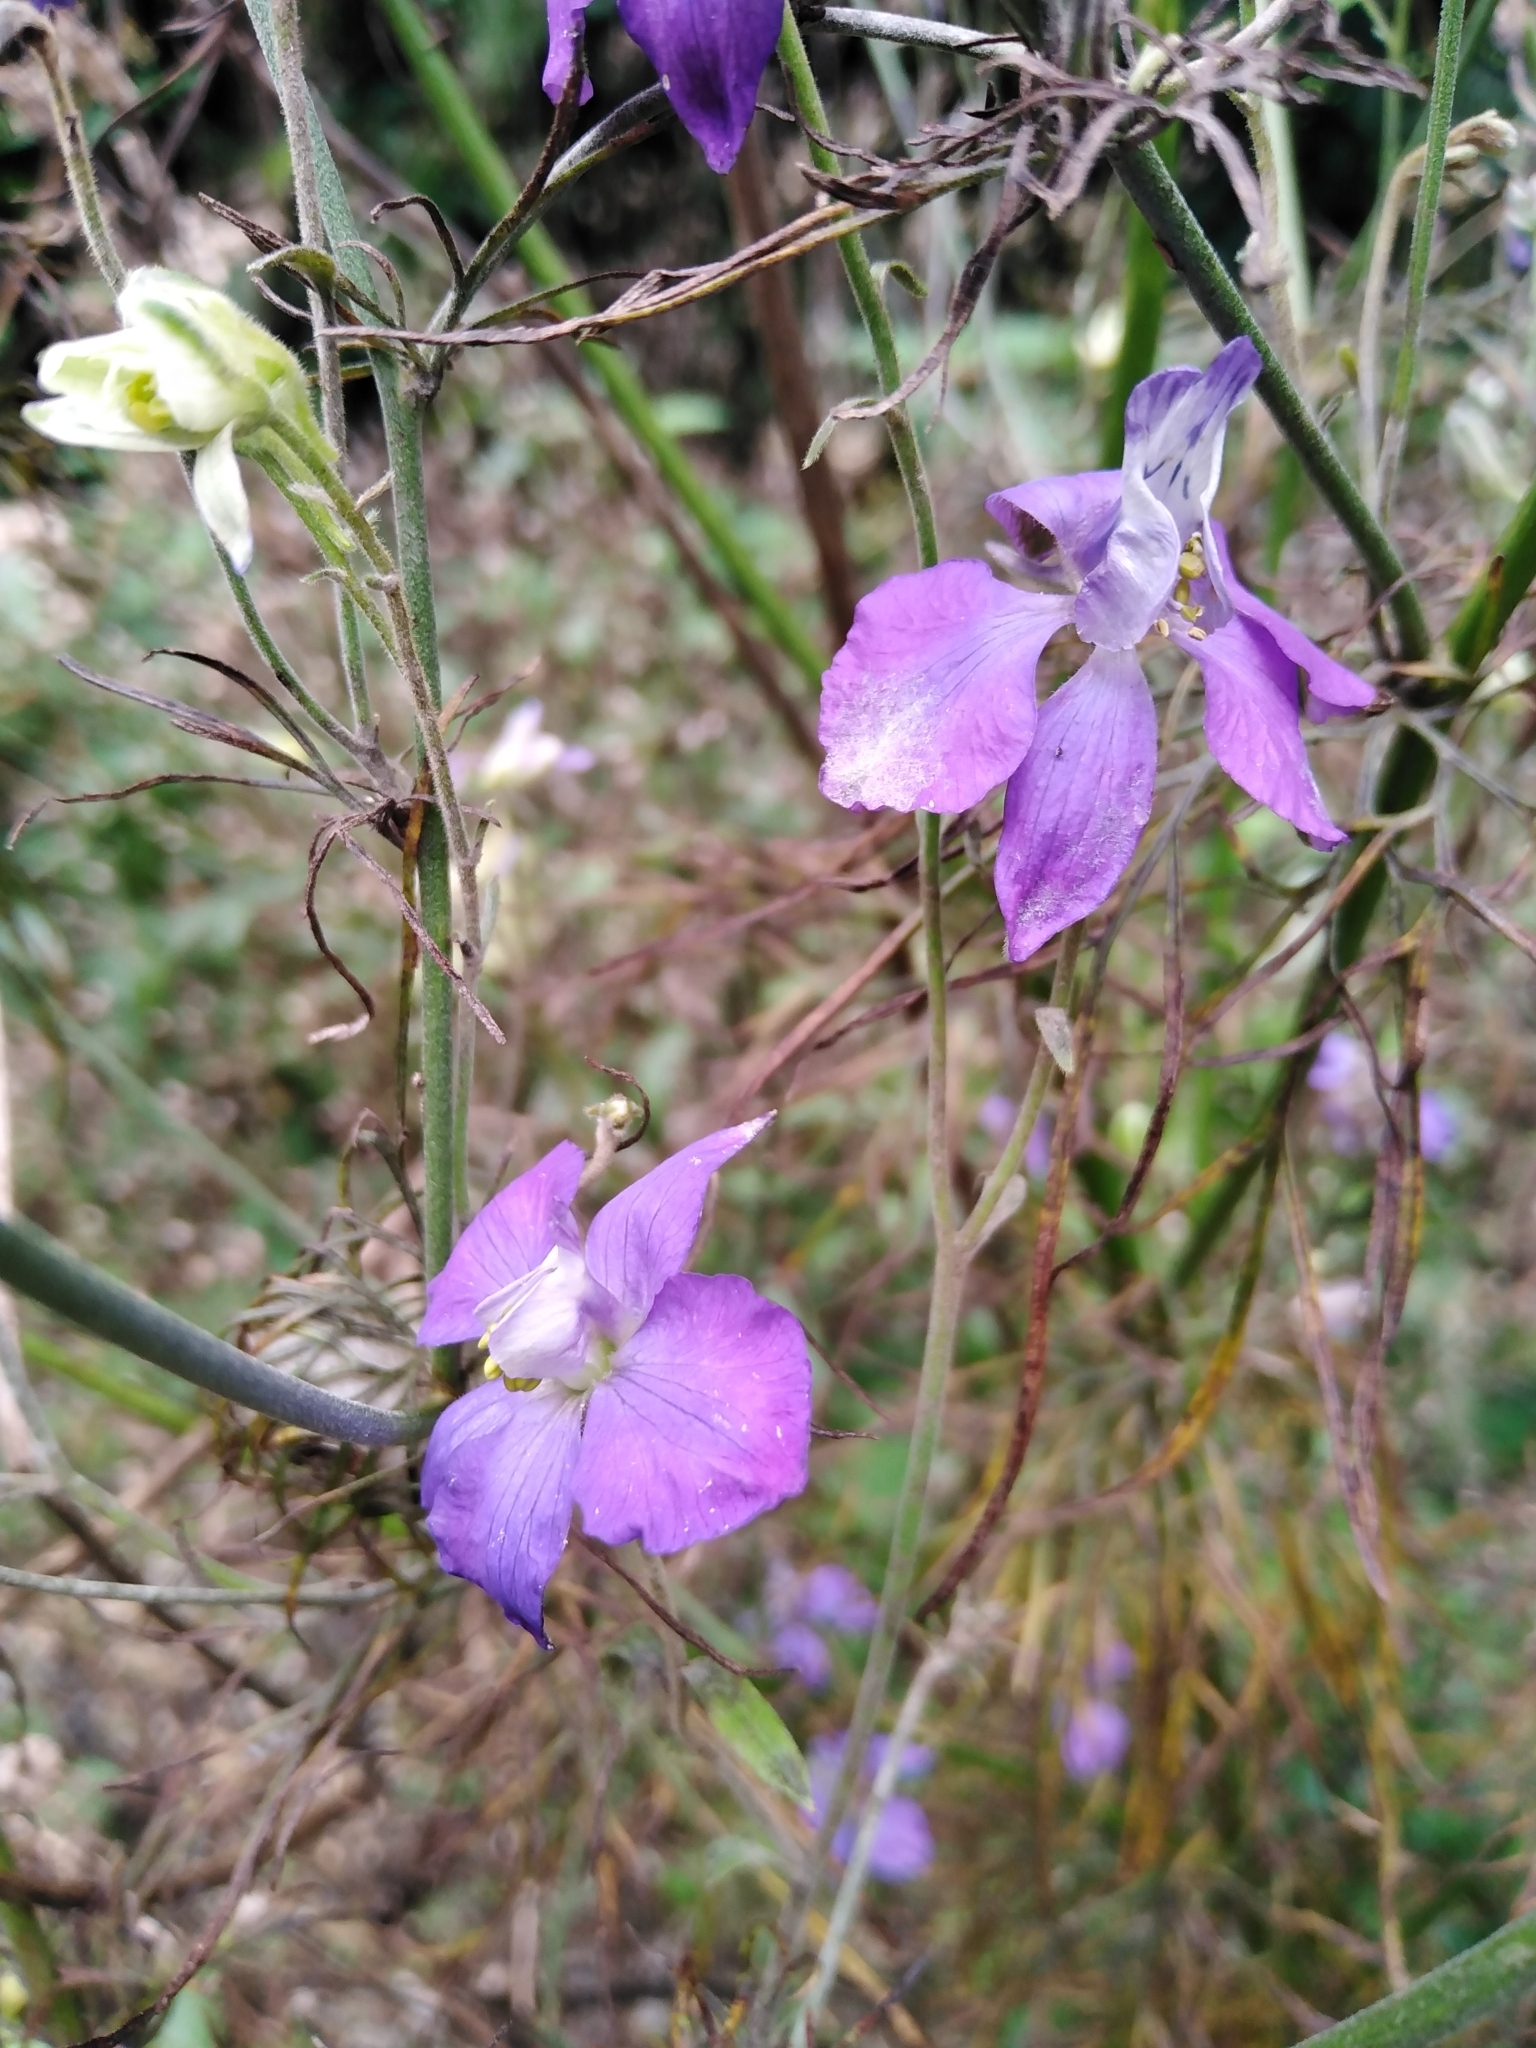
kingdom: Plantae
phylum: Tracheophyta
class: Magnoliopsida
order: Ranunculales
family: Ranunculaceae
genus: Delphinium
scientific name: Delphinium ajacis
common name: Doubtful knight's-spur
